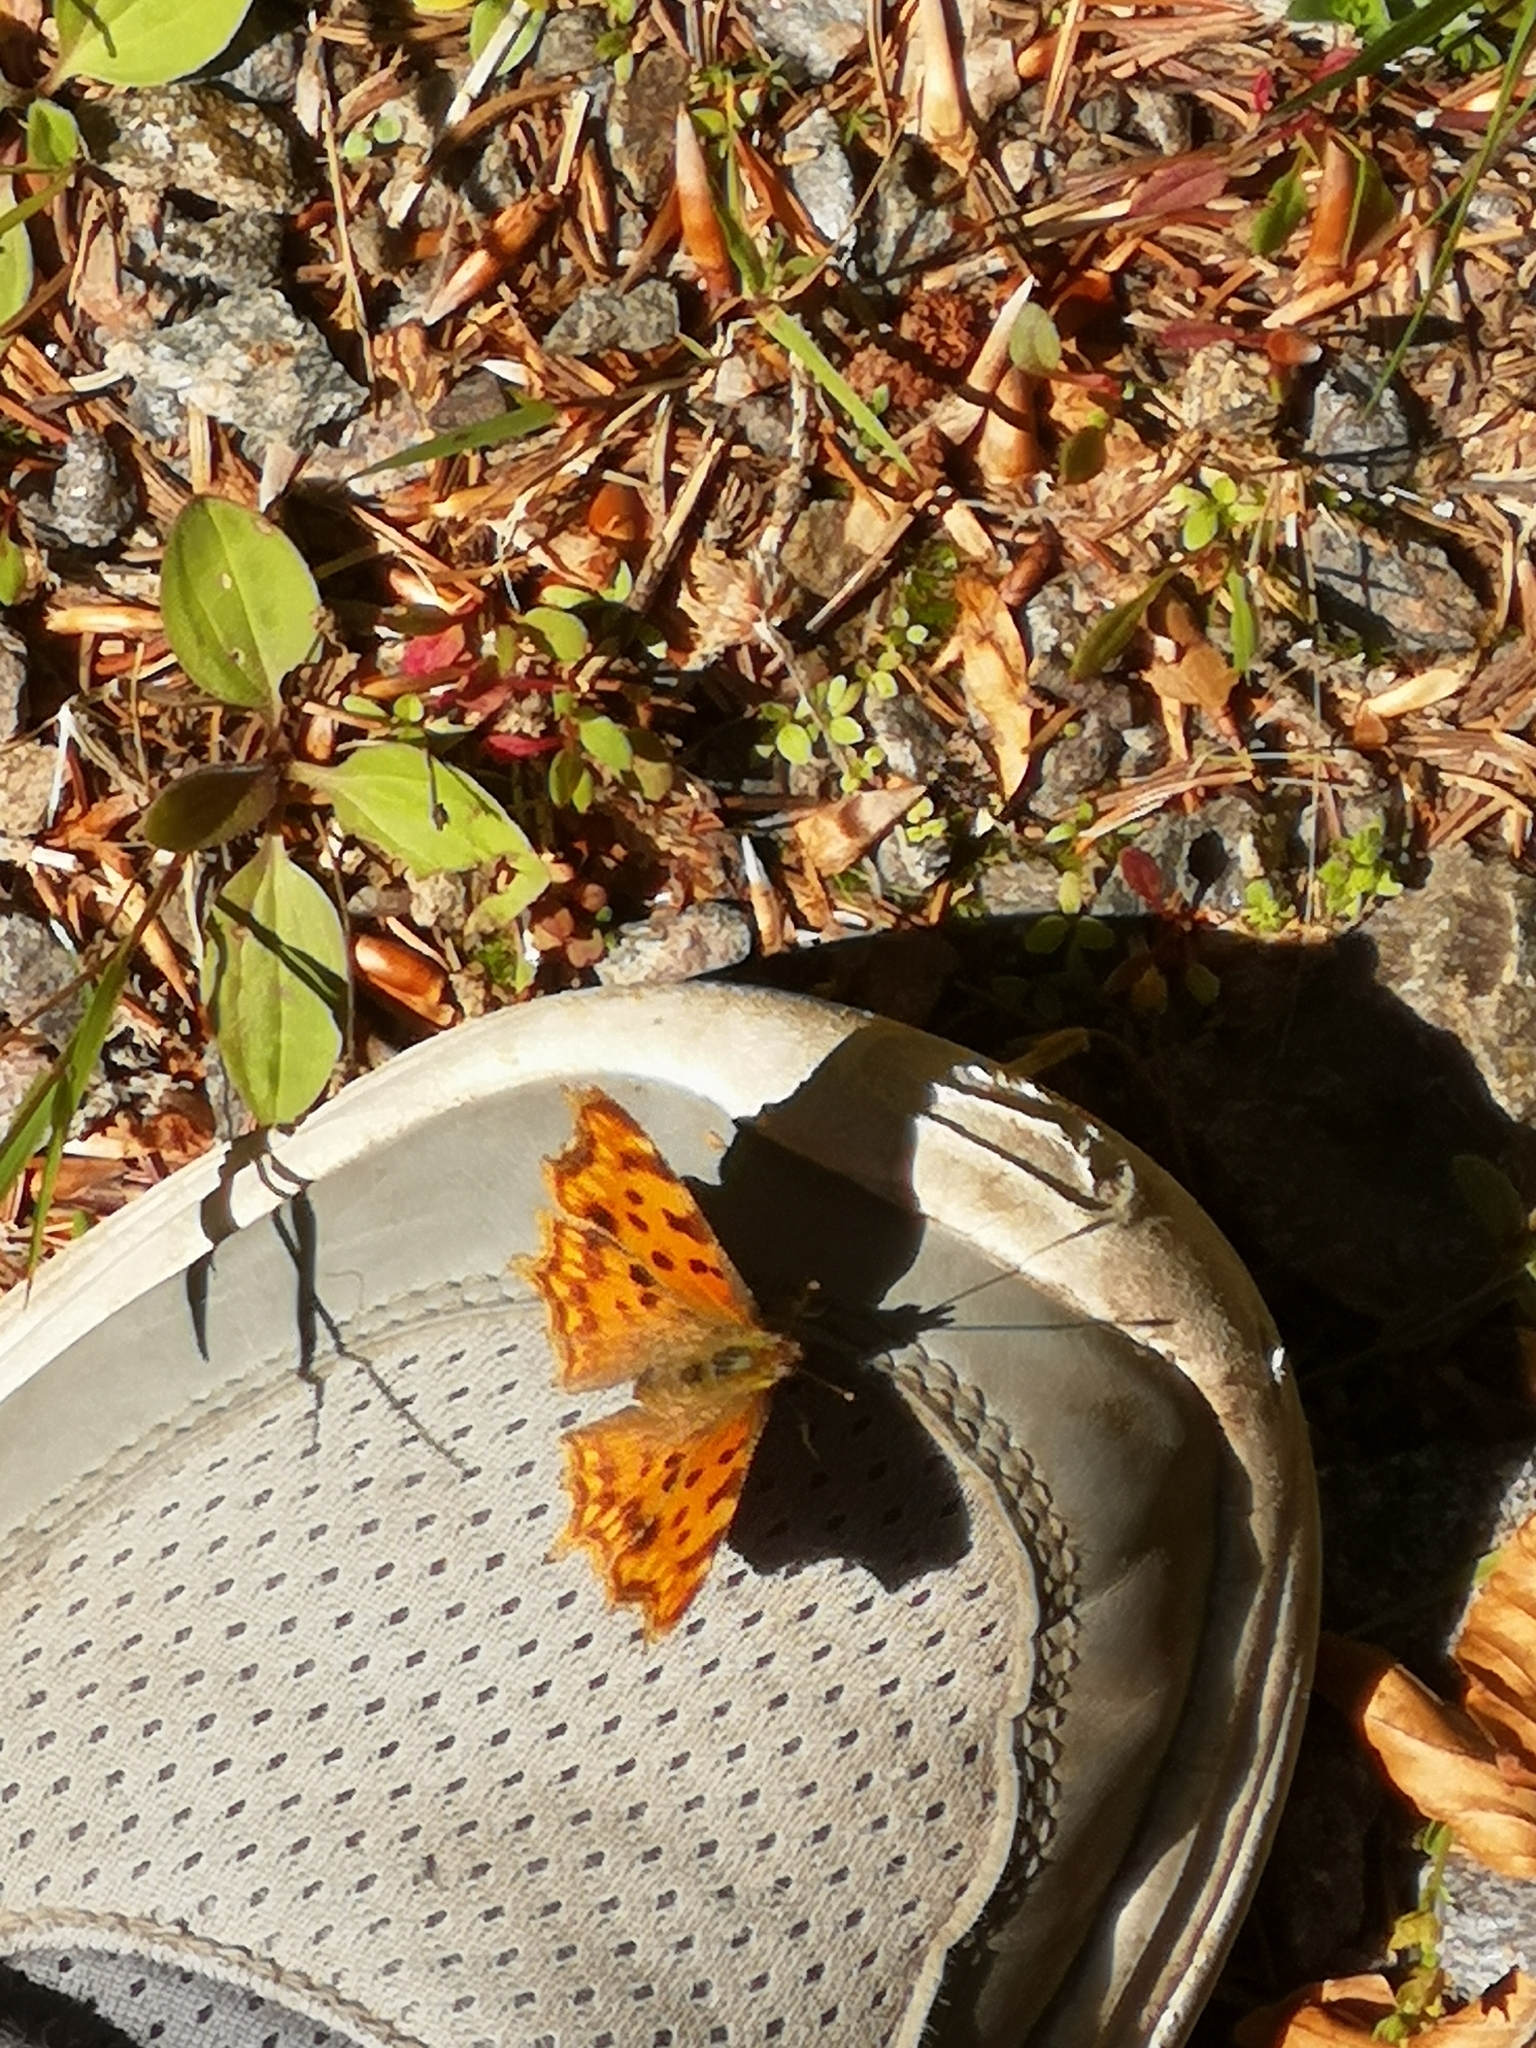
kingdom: Animalia
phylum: Arthropoda
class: Insecta
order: Lepidoptera
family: Nymphalidae
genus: Polygonia
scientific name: Polygonia c-album
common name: Comma
